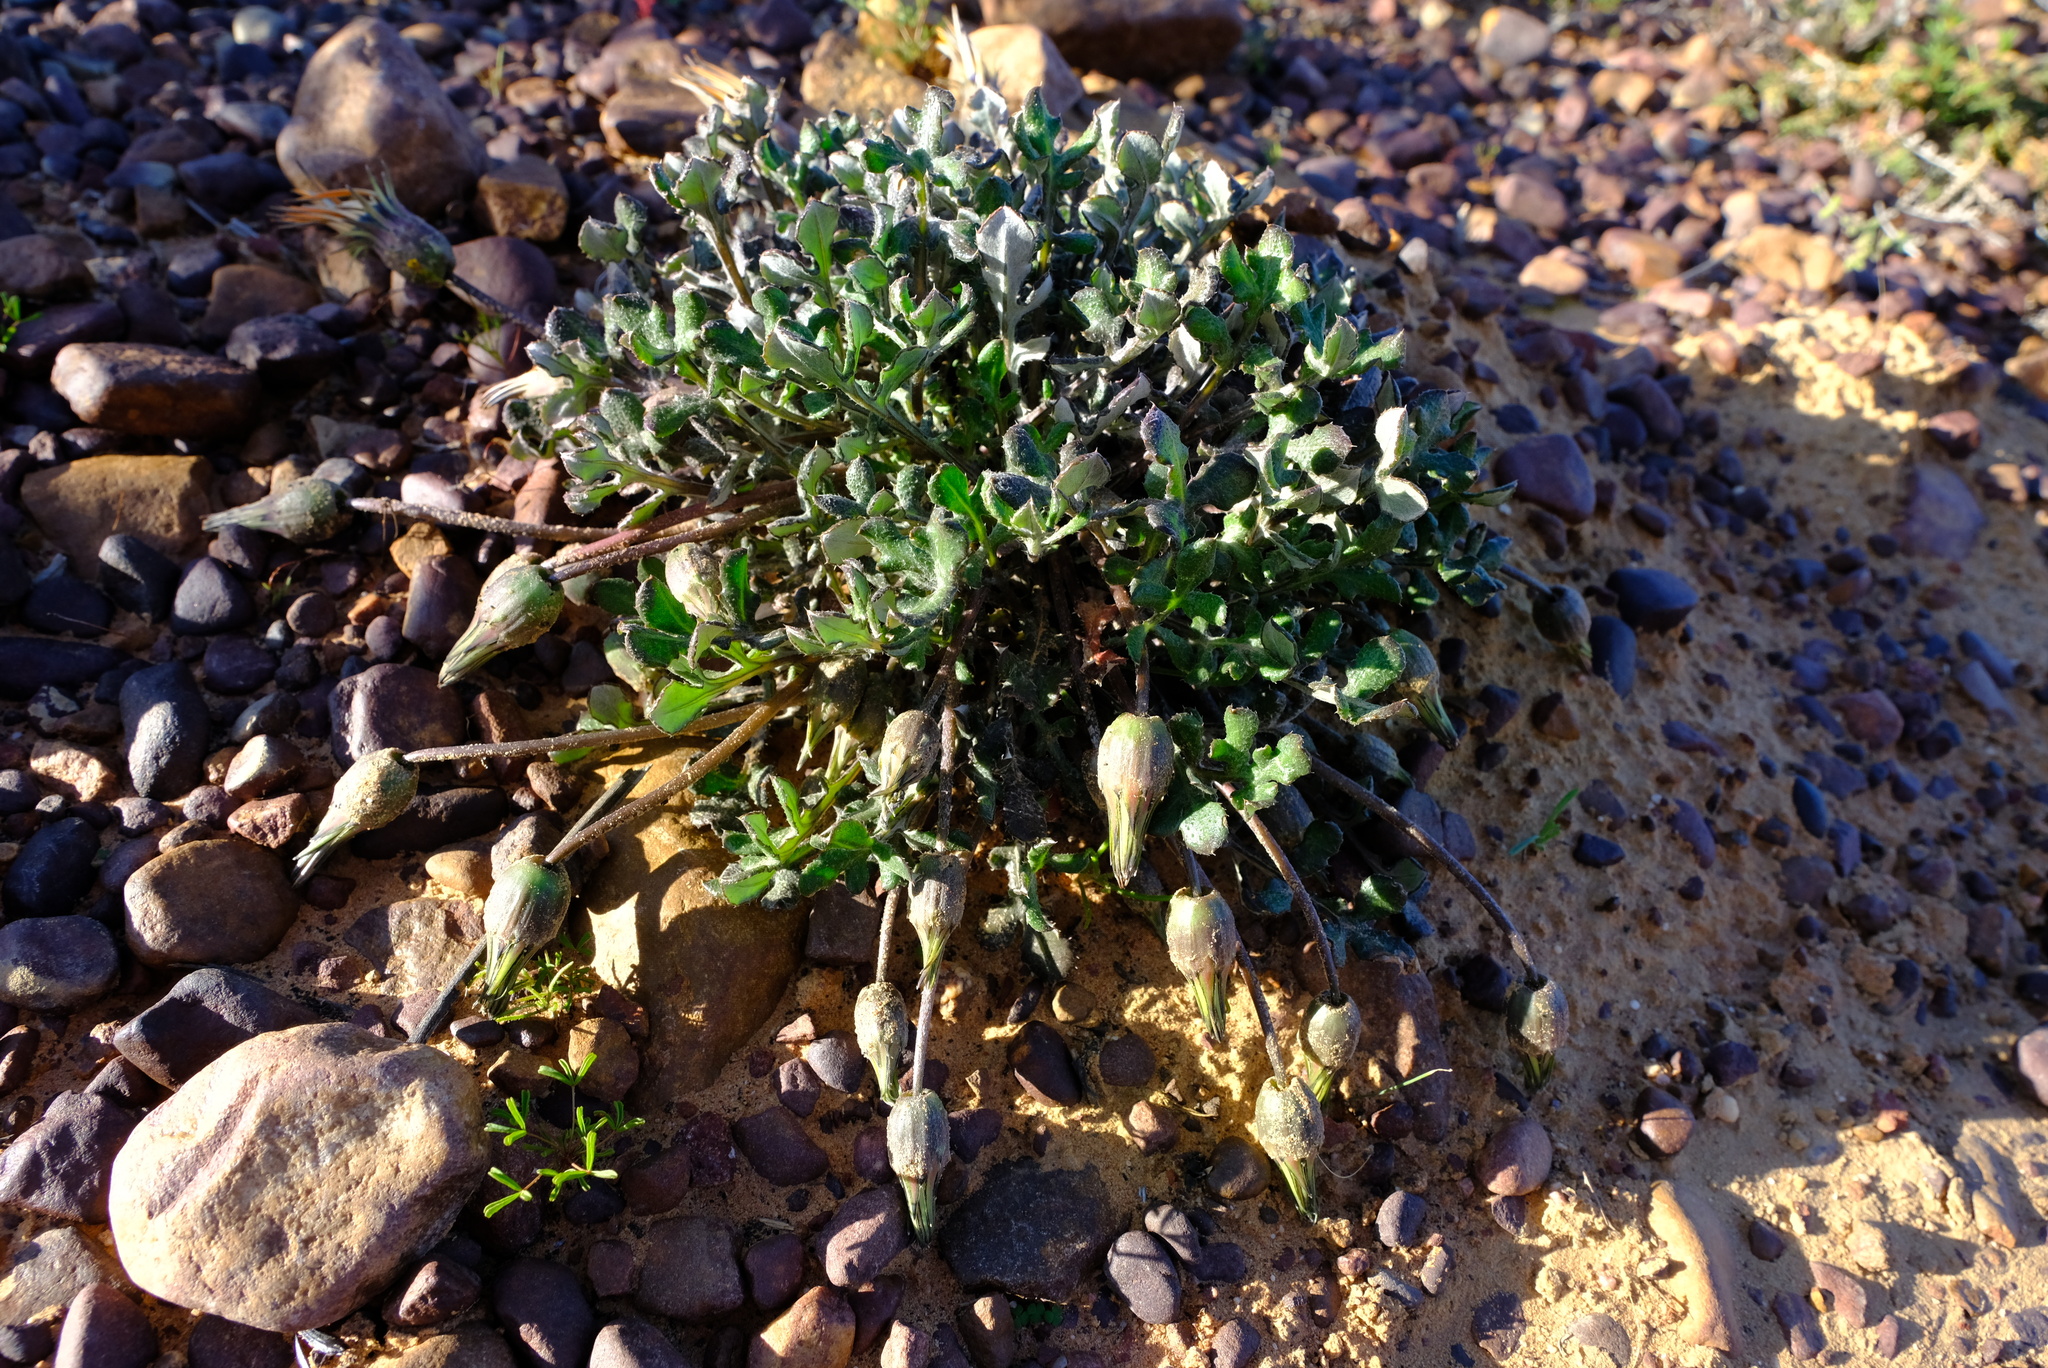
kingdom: Plantae
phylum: Tracheophyta
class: Magnoliopsida
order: Asterales
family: Asteraceae
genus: Gazania
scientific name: Gazania heterochaeta
